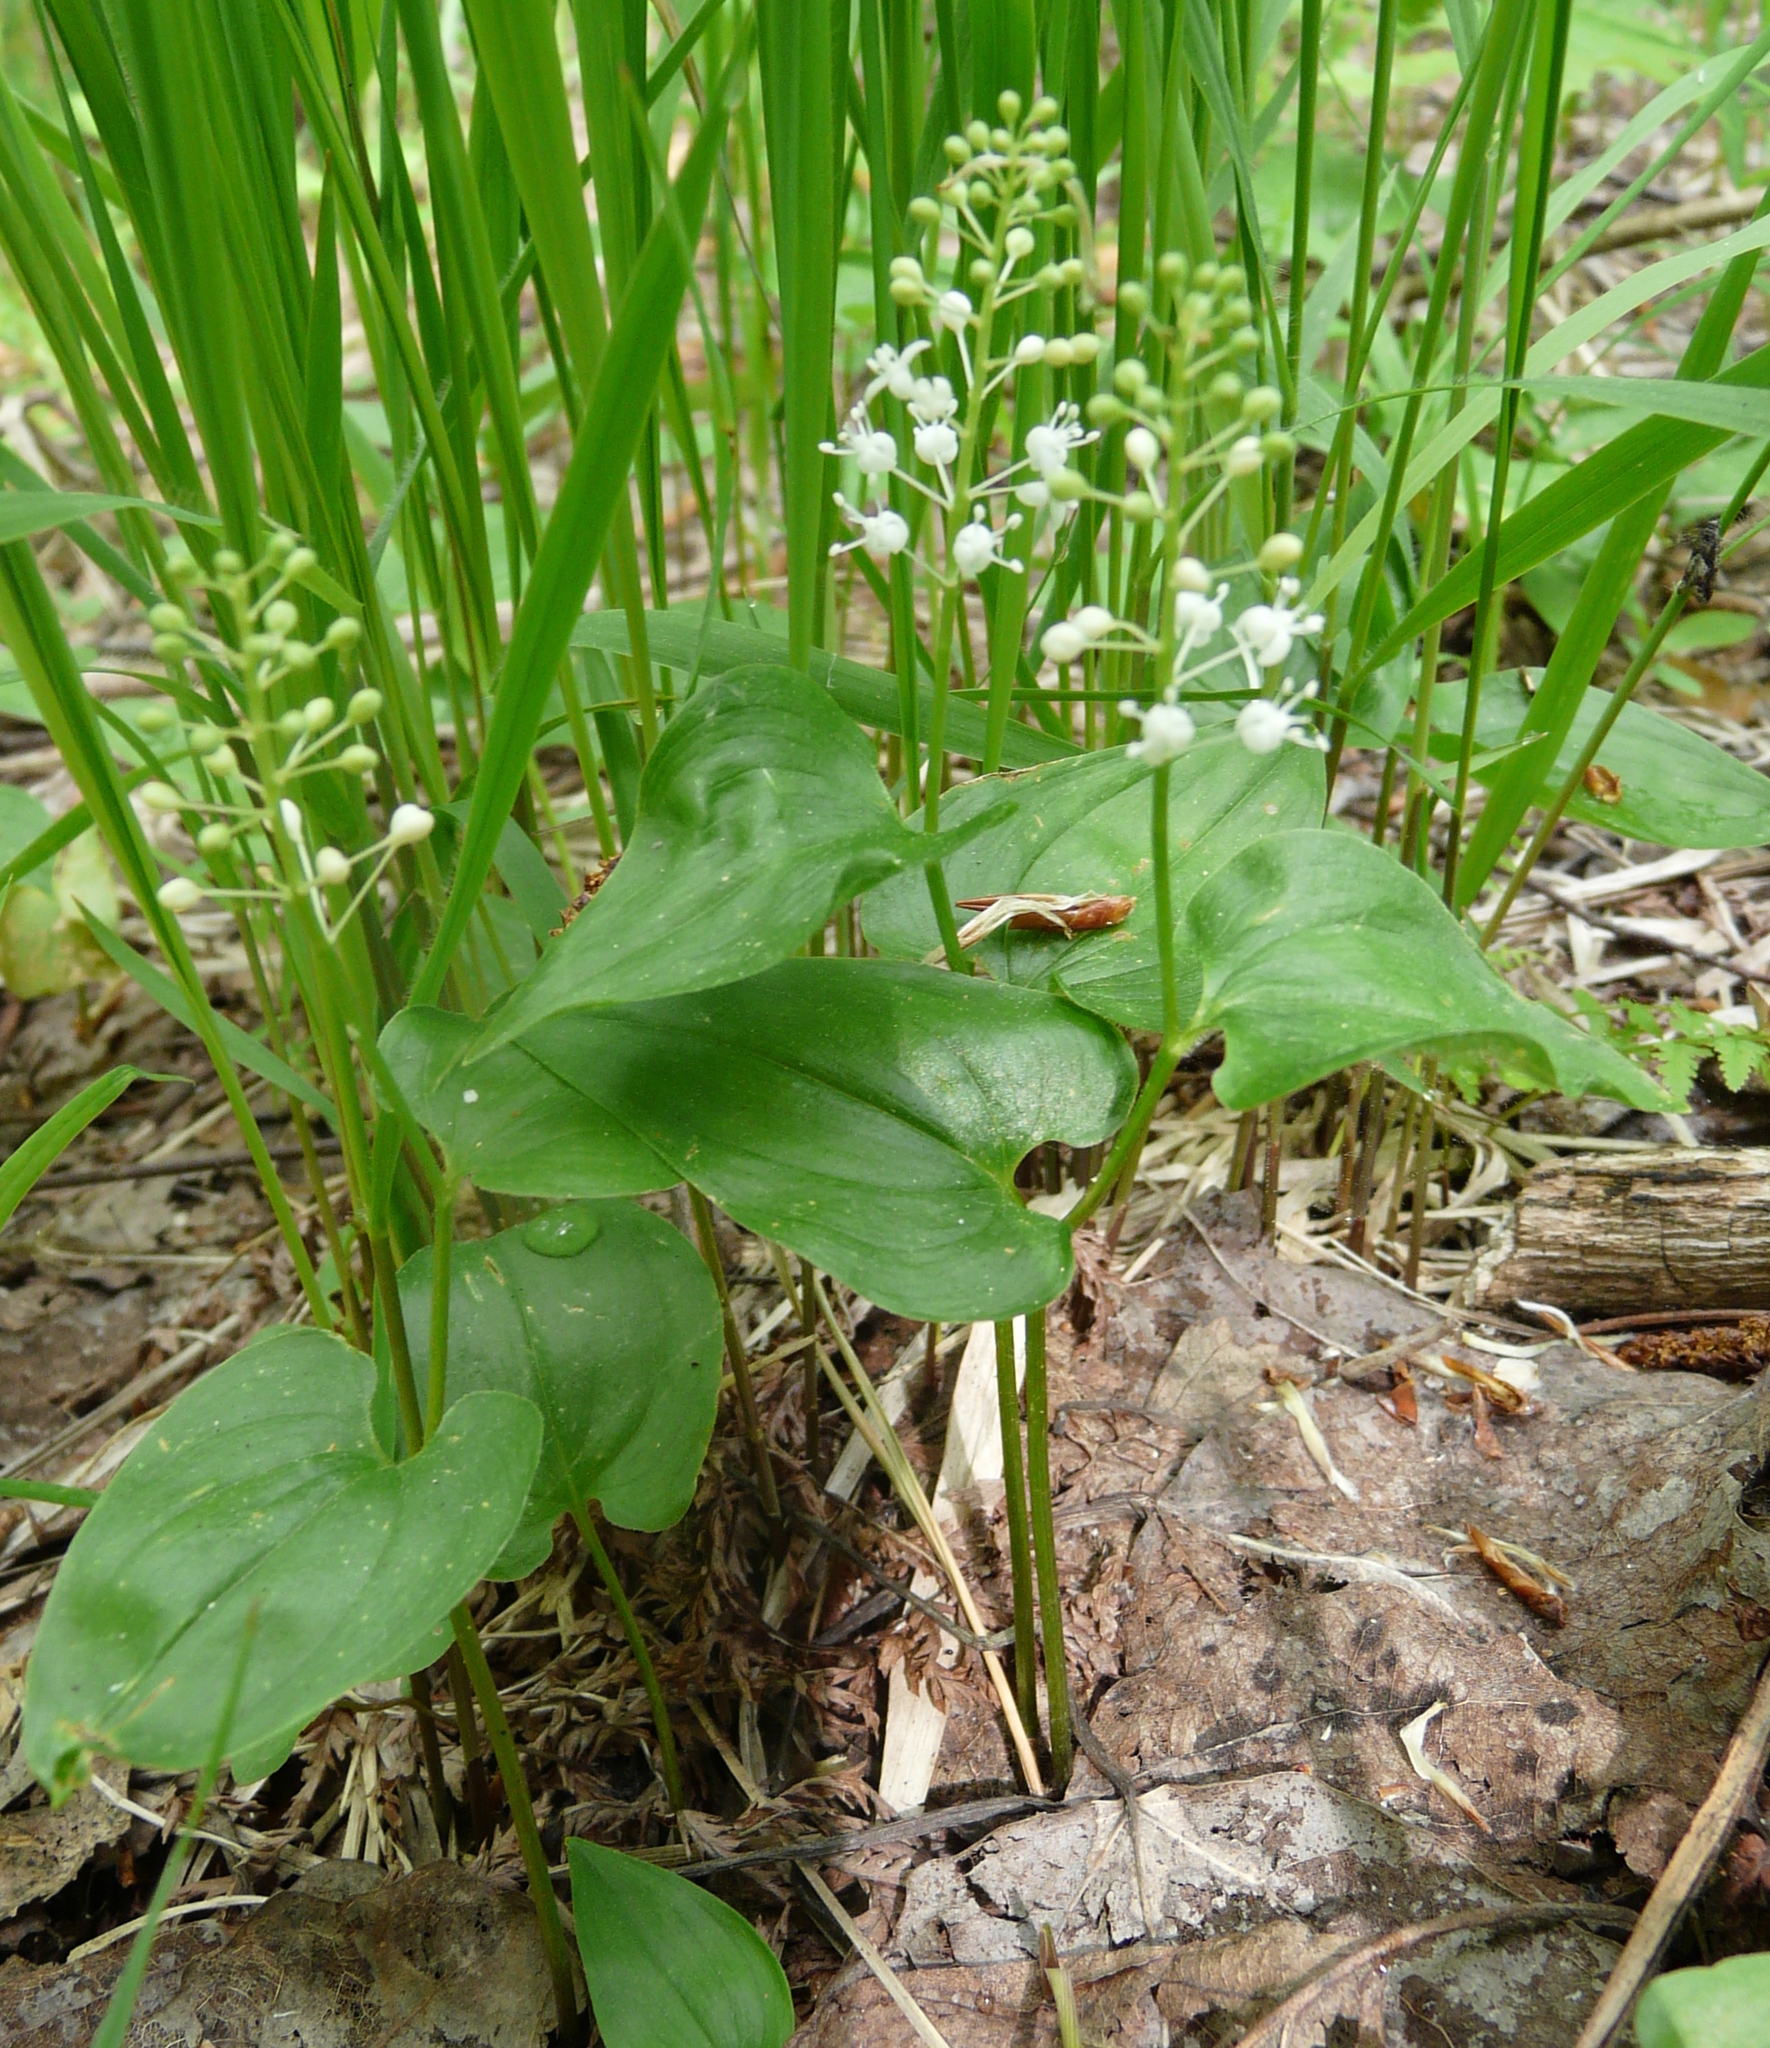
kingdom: Plantae
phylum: Tracheophyta
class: Liliopsida
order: Asparagales
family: Asparagaceae
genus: Maianthemum
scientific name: Maianthemum bifolium
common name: May lily
